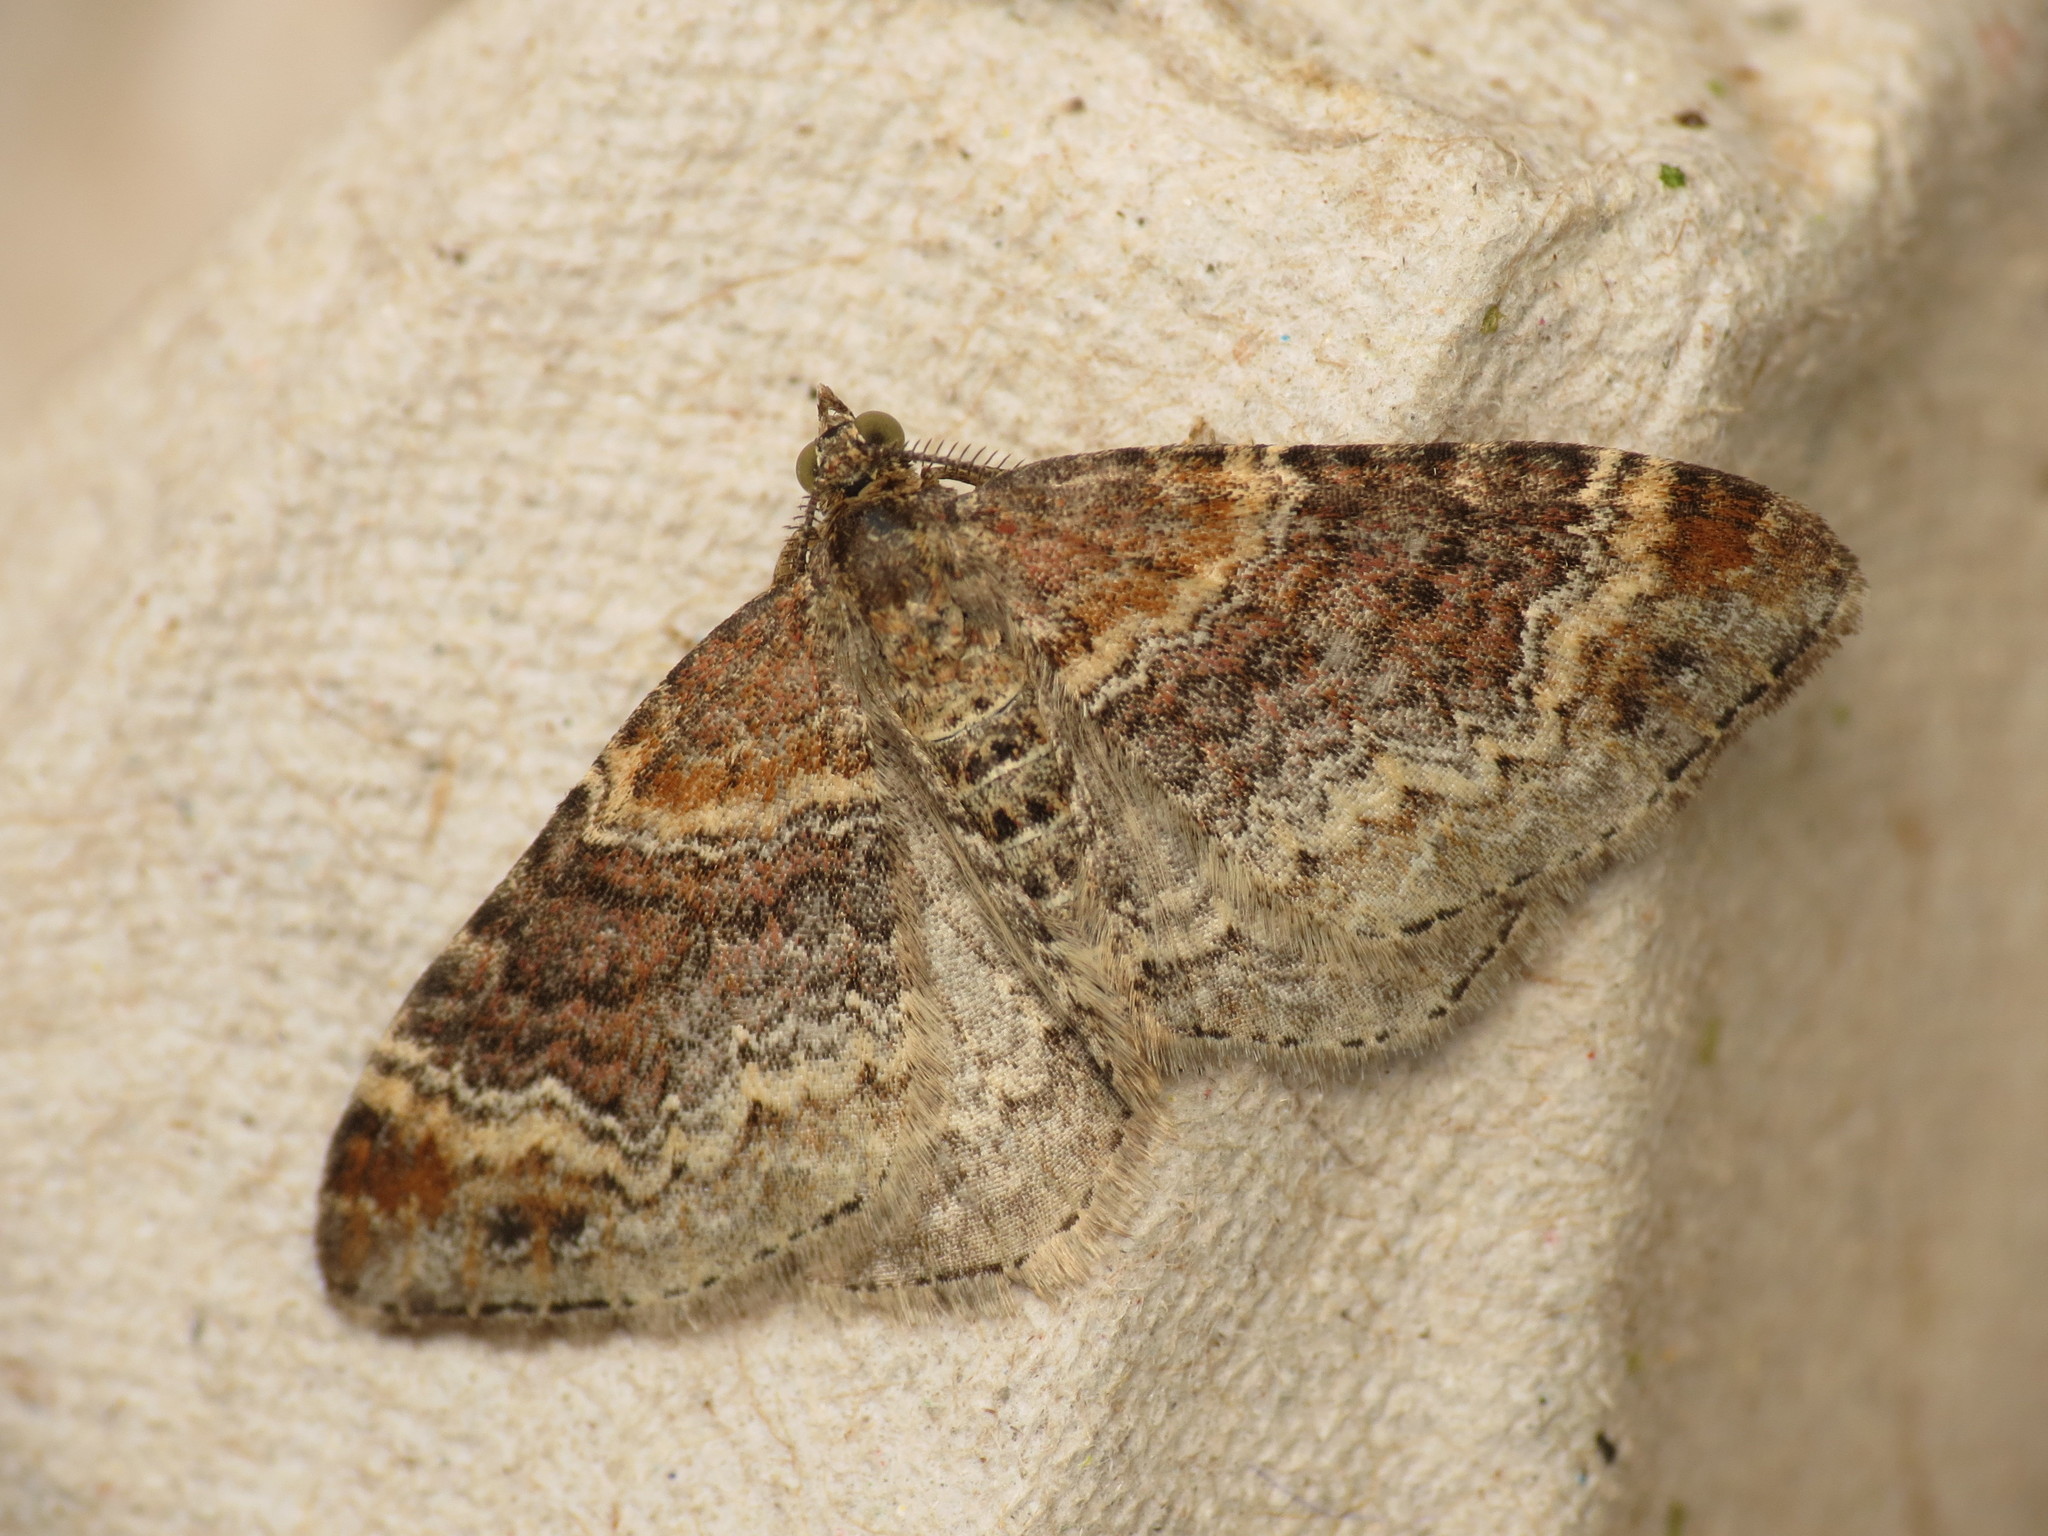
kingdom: Animalia
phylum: Arthropoda
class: Insecta
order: Lepidoptera
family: Geometridae
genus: Xanthorhoe
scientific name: Xanthorhoe spadicearia
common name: Red twin-spot carpet
